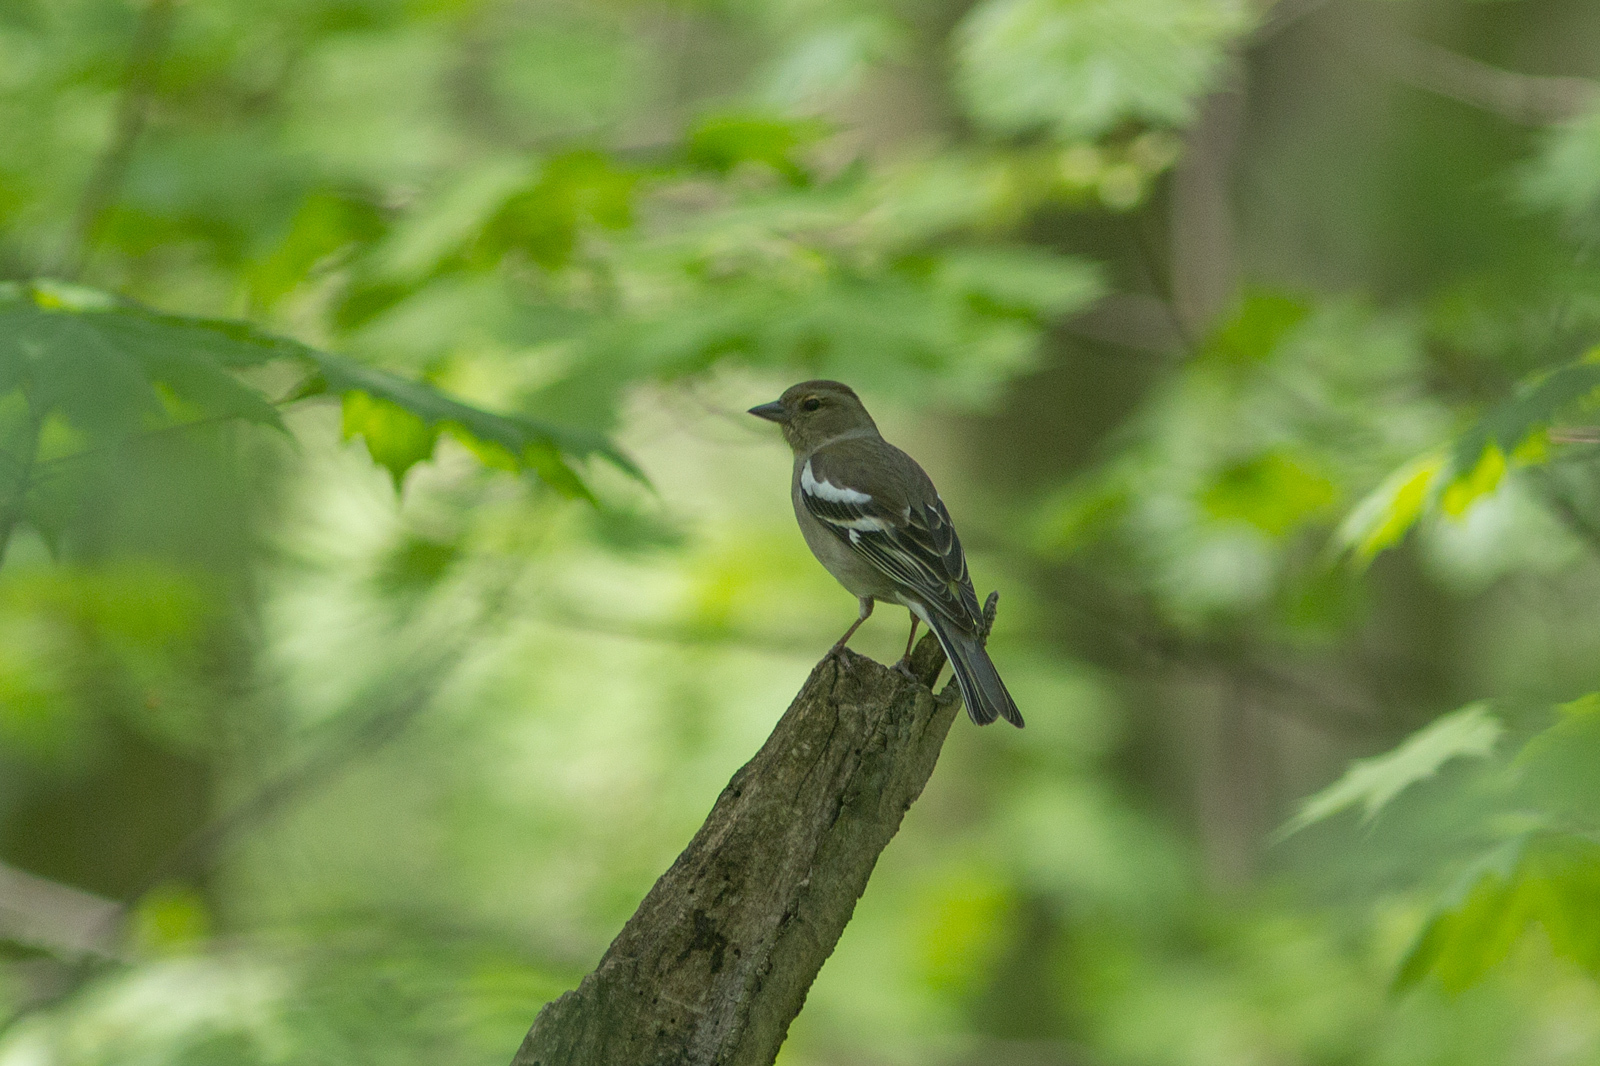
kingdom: Animalia
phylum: Chordata
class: Aves
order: Passeriformes
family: Fringillidae
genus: Fringilla
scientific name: Fringilla coelebs
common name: Common chaffinch
